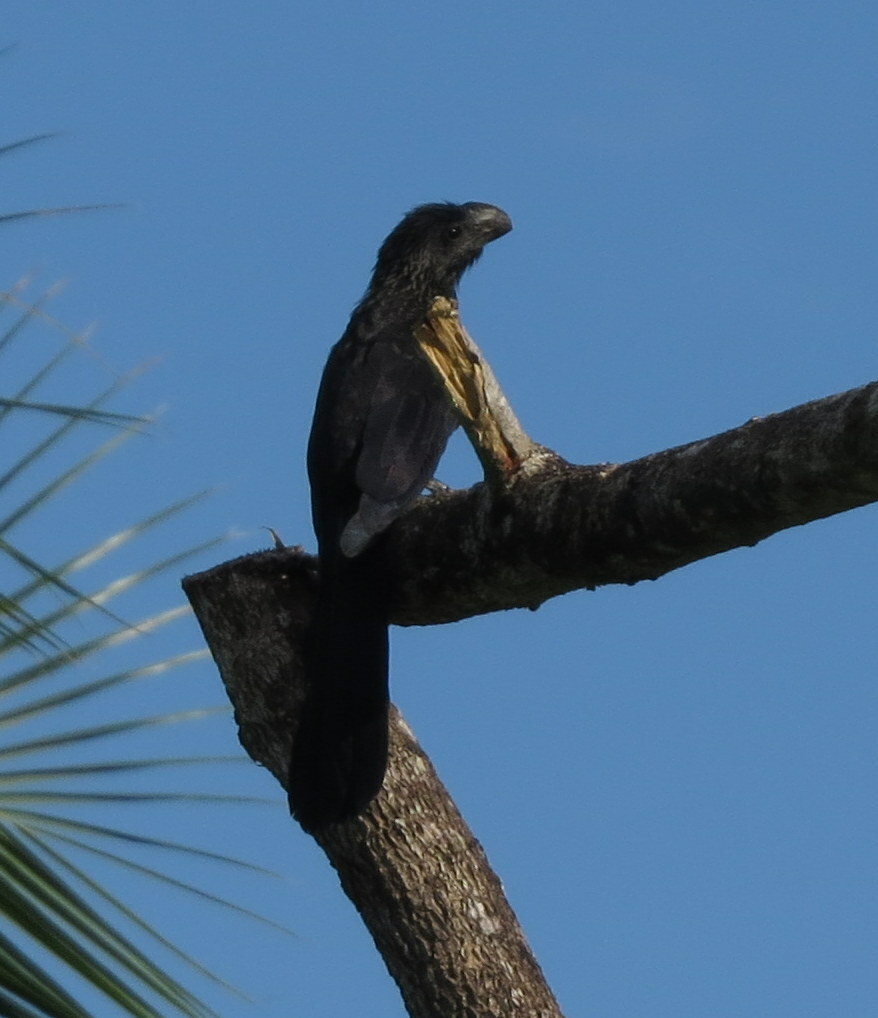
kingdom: Animalia
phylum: Chordata
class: Aves
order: Cuculiformes
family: Cuculidae
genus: Crotophaga
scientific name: Crotophaga ani
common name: Smooth-billed ani
